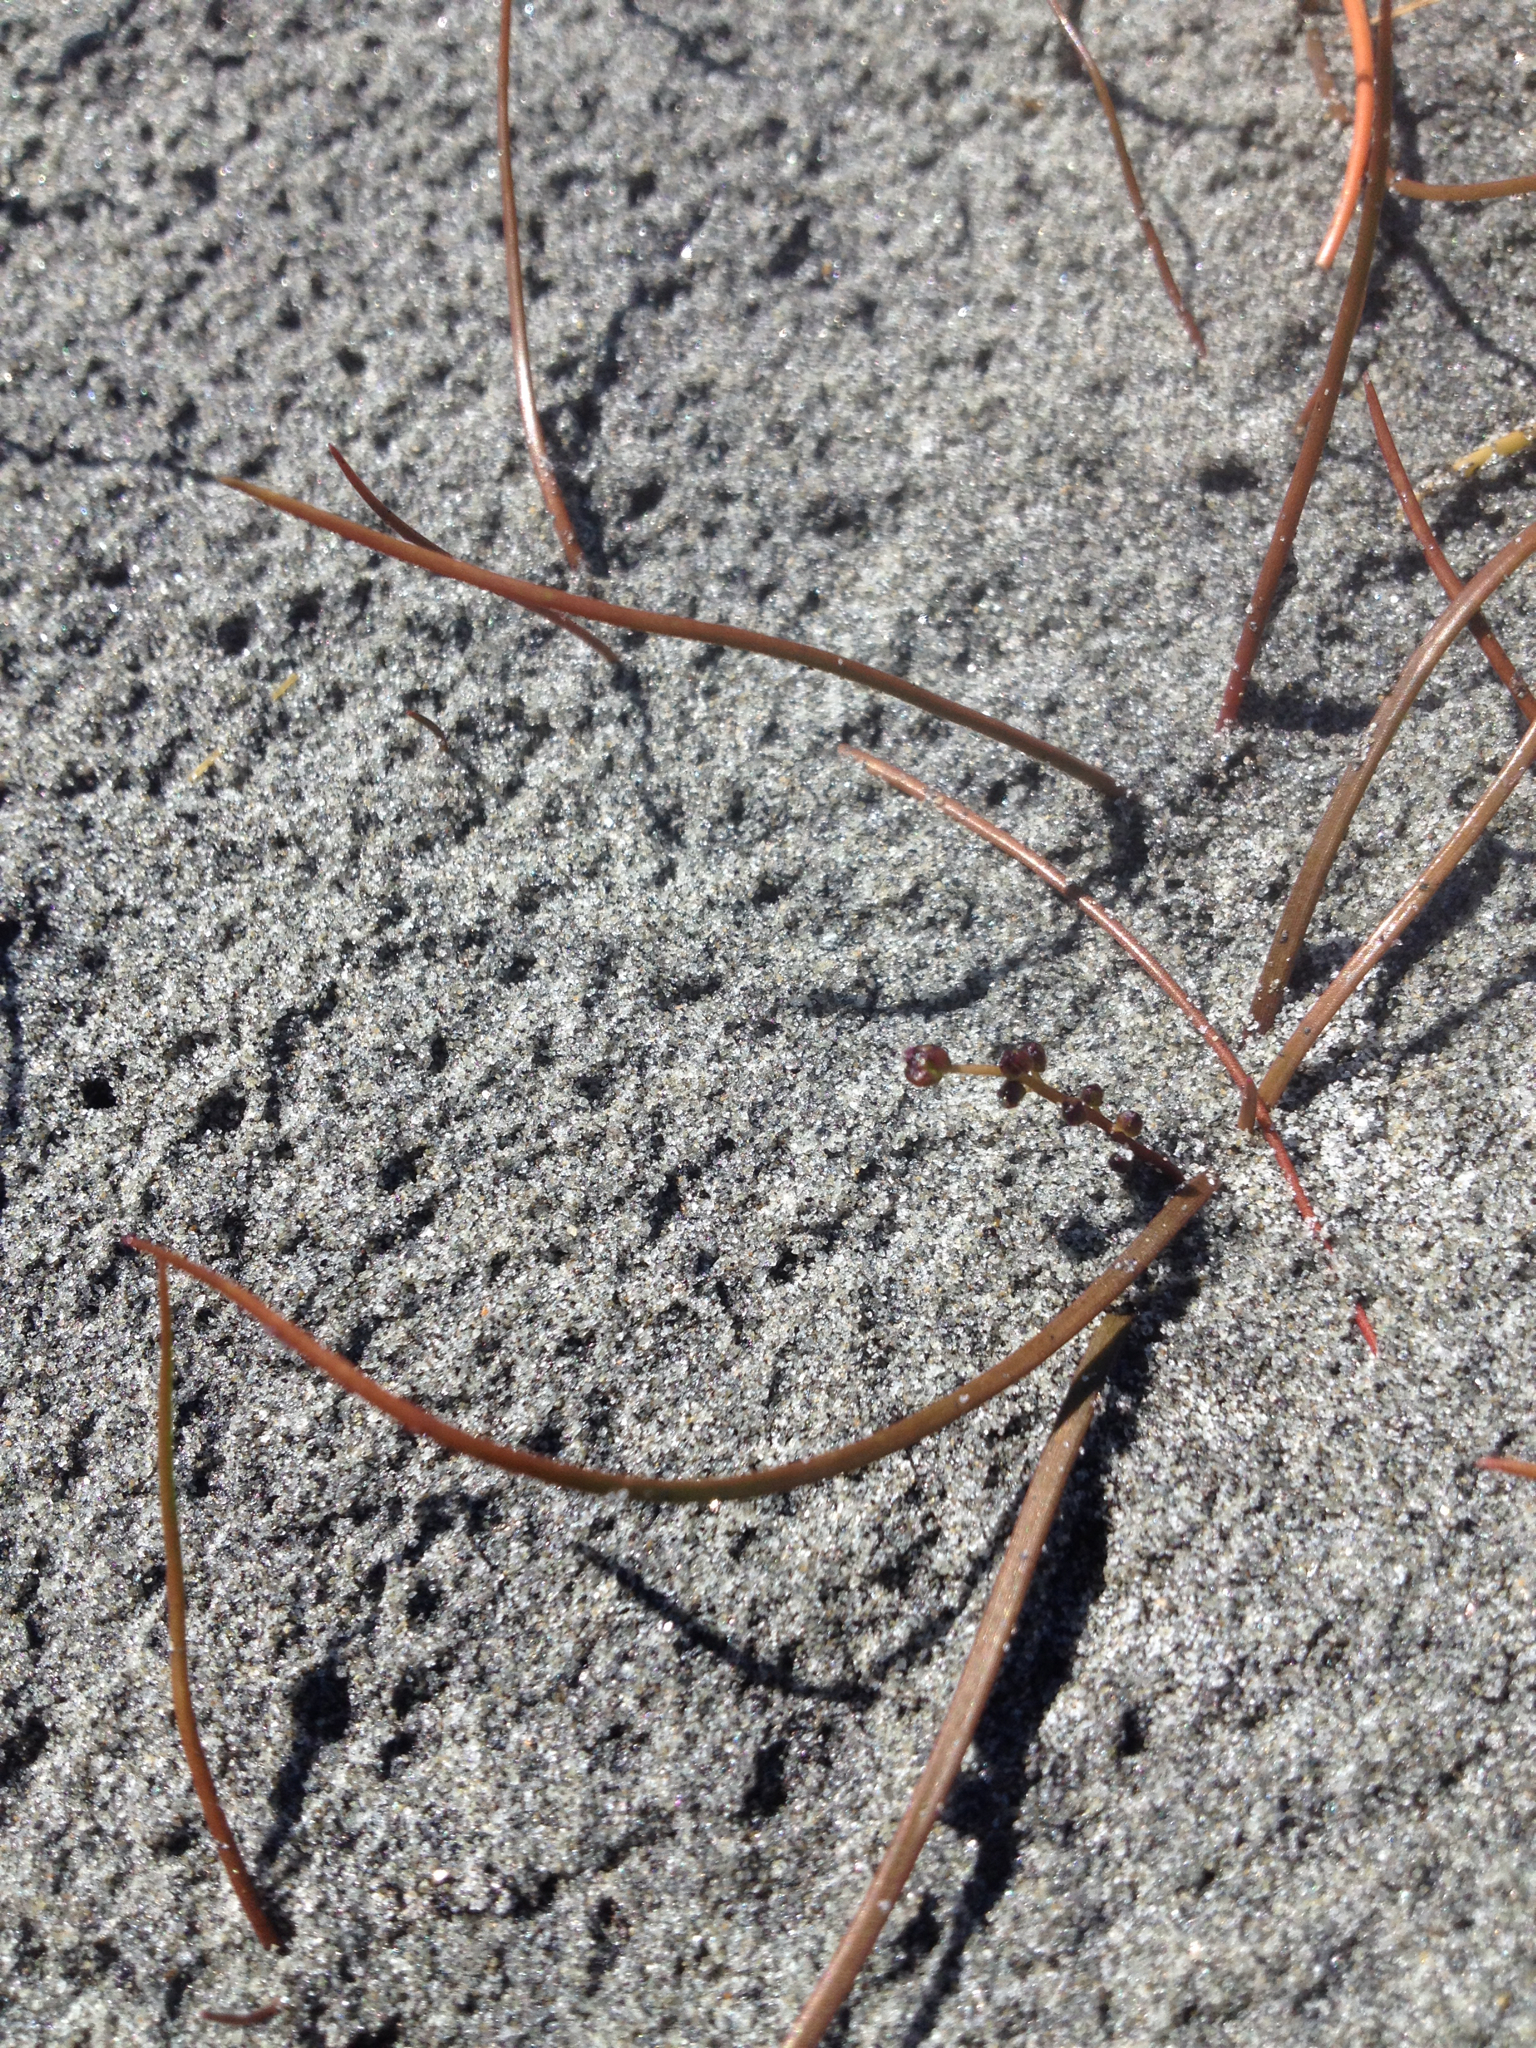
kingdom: Plantae
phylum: Tracheophyta
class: Liliopsida
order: Alismatales
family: Juncaginaceae
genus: Triglochin
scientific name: Triglochin
